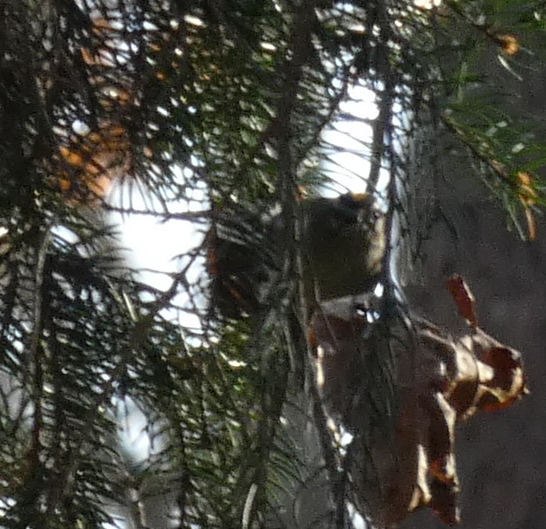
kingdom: Animalia
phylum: Chordata
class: Aves
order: Passeriformes
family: Regulidae
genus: Regulus
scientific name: Regulus satrapa
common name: Golden-crowned kinglet
